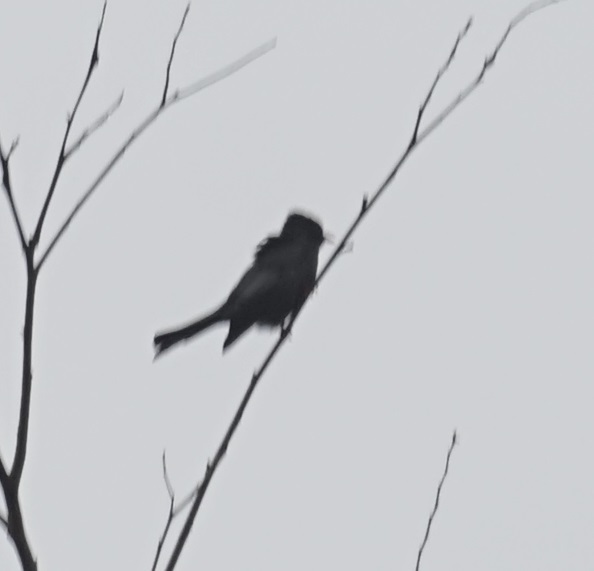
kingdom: Animalia
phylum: Chordata
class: Aves
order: Passeriformes
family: Pycnonotidae
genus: Hypsipetes
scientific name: Hypsipetes leucocephalus
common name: Black bulbul
